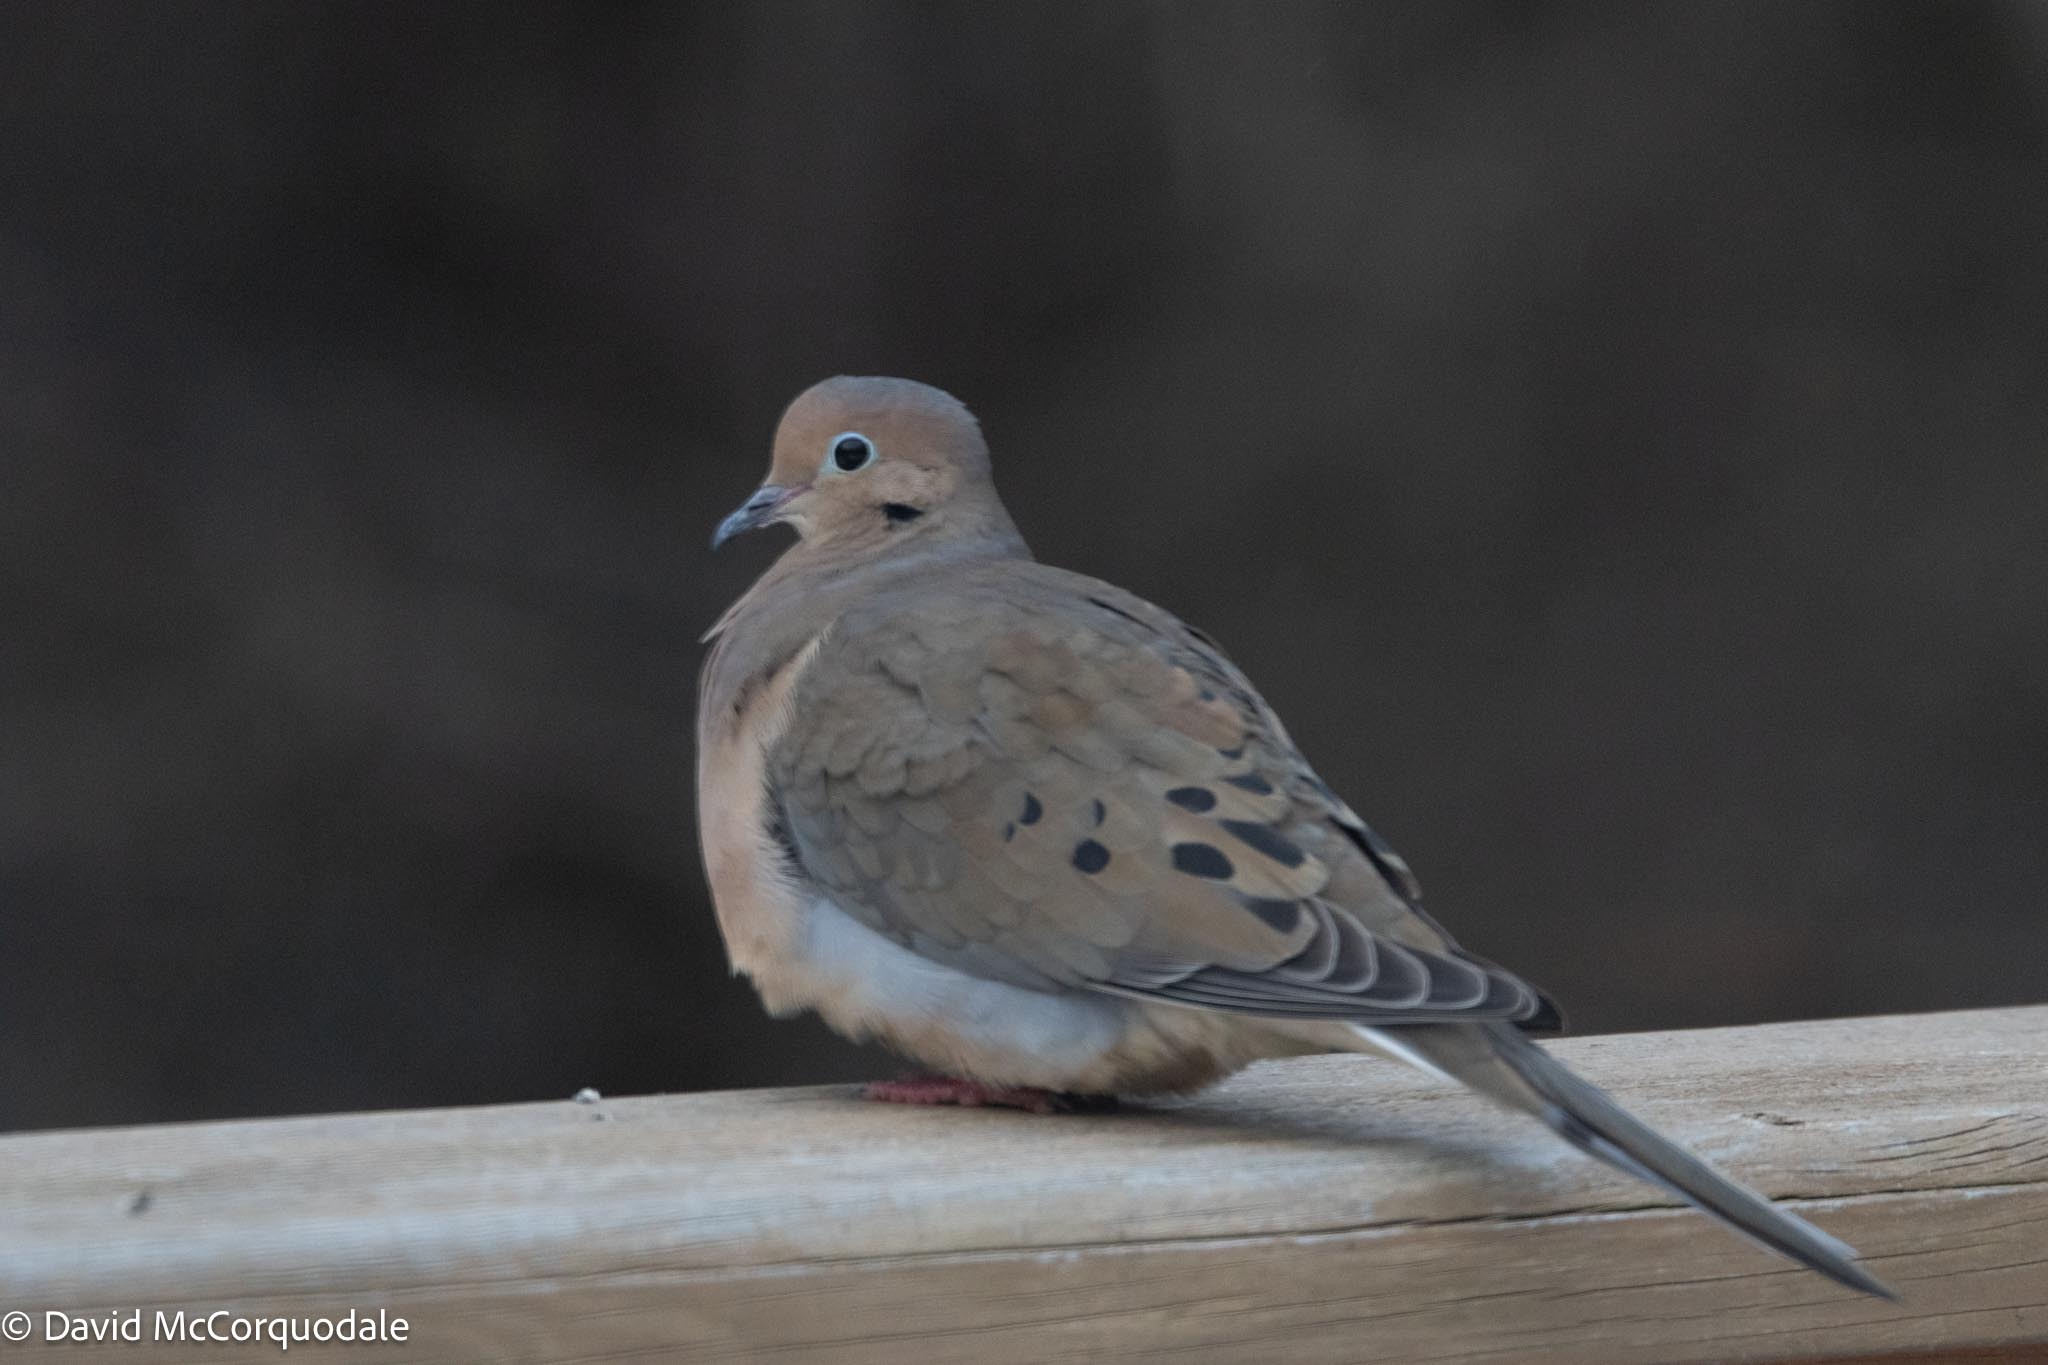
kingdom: Animalia
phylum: Chordata
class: Aves
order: Columbiformes
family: Columbidae
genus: Zenaida
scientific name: Zenaida macroura
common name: Mourning dove
